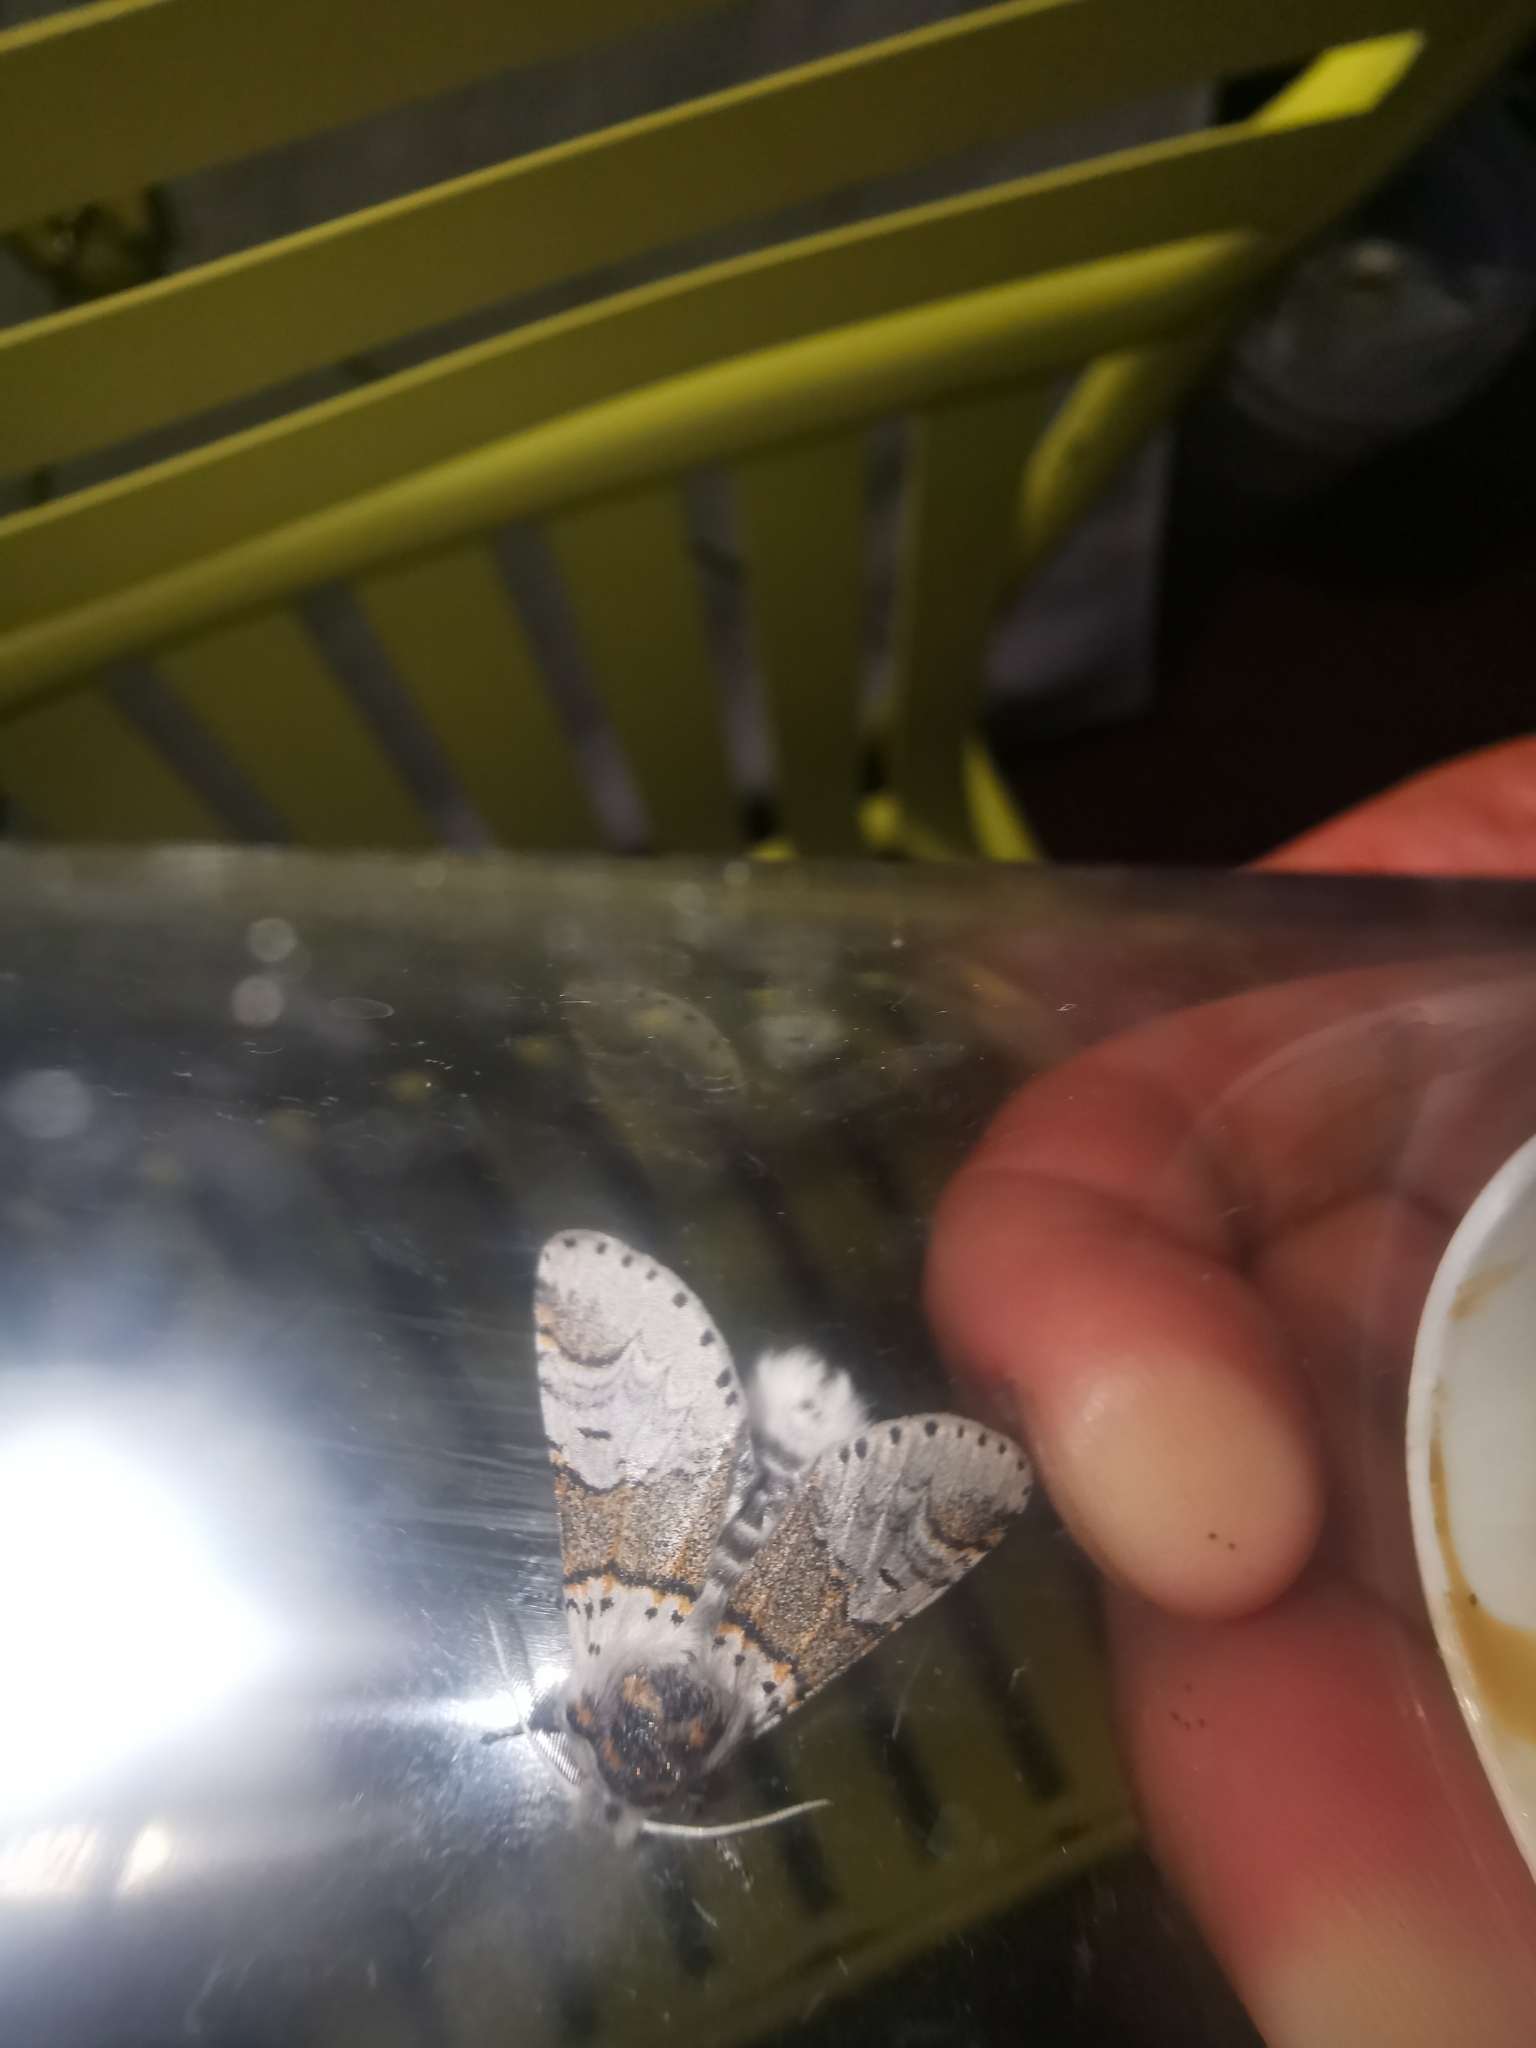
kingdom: Animalia
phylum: Arthropoda
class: Insecta
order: Lepidoptera
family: Notodontidae
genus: Furcula
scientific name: Furcula furcula
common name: Sallow kitten
